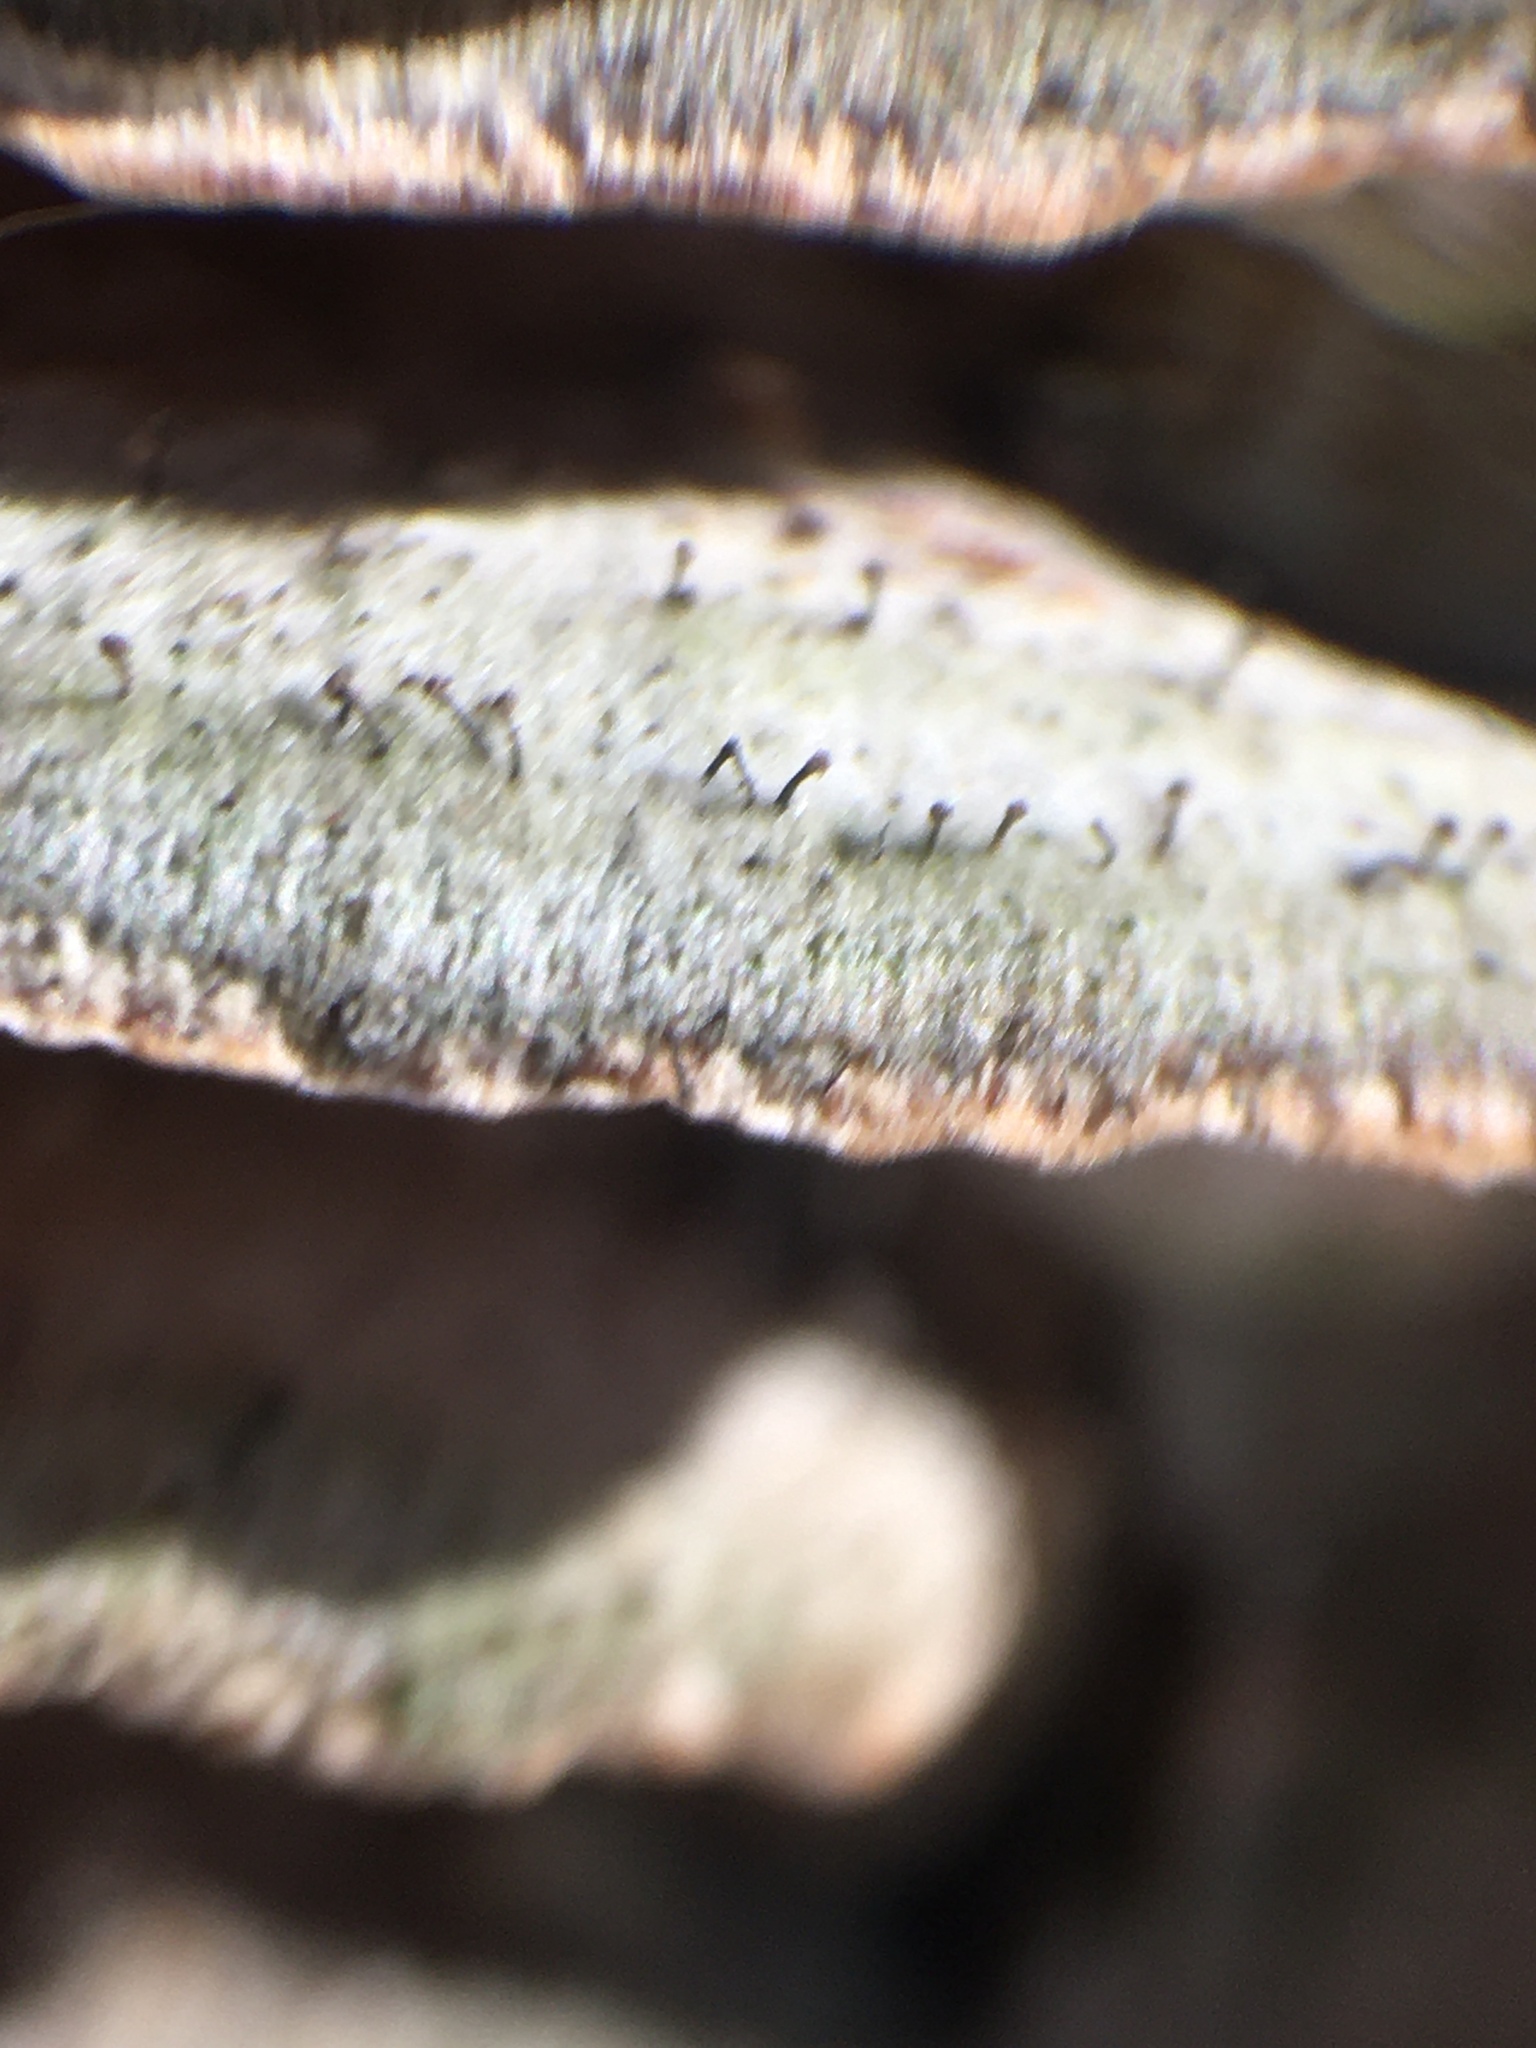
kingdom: Fungi
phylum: Ascomycota
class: Eurotiomycetes
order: Mycocaliciales
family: Mycocaliciaceae
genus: Phaeocalicium
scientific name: Phaeocalicium polyporaeum
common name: Fairy pins
